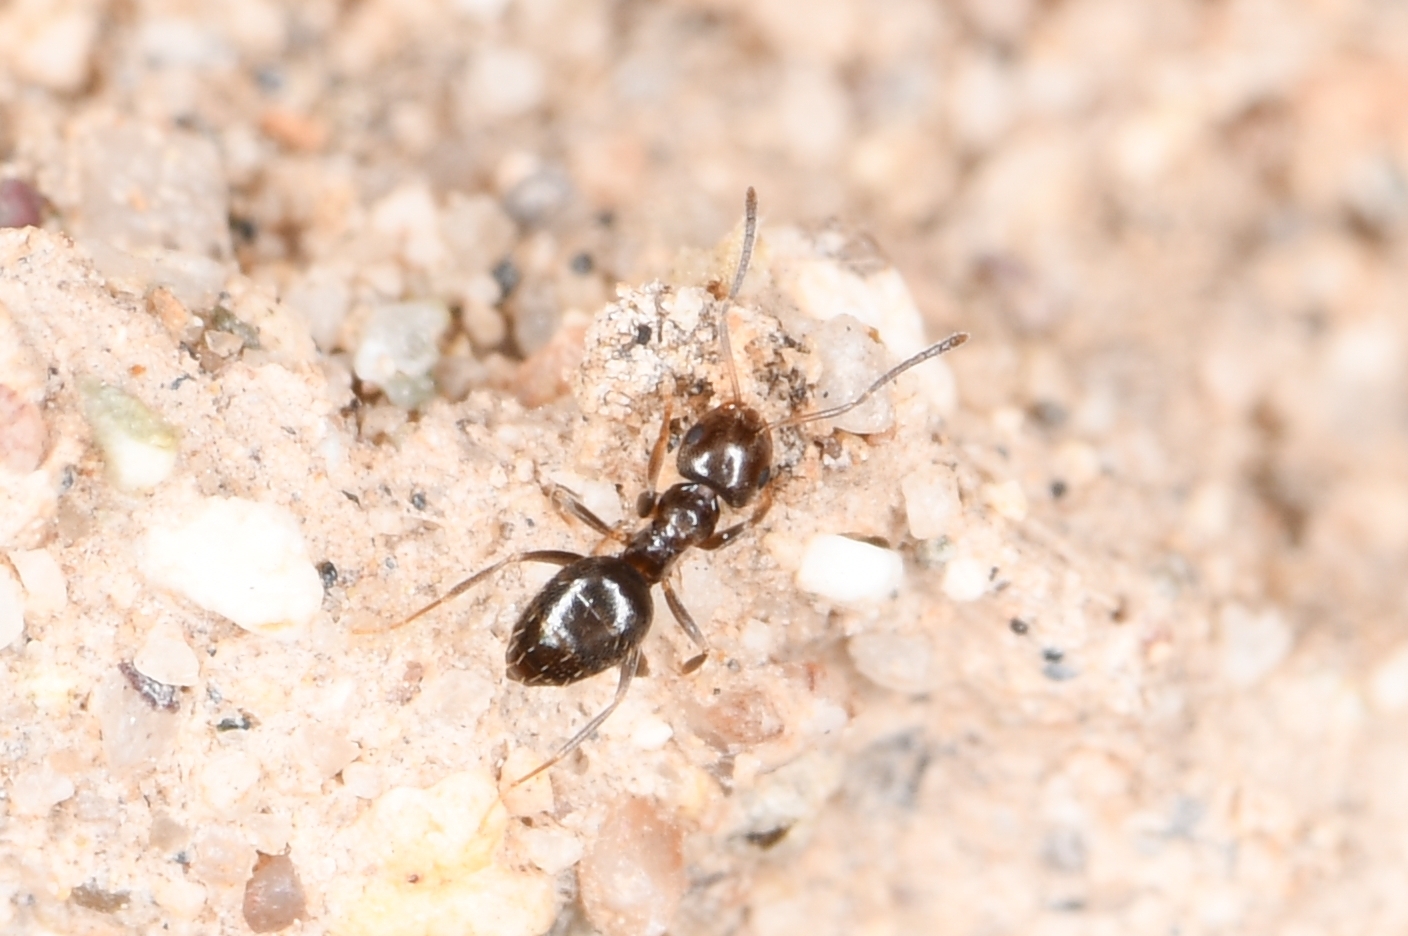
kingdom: Animalia
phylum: Arthropoda
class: Insecta
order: Hymenoptera
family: Formicidae
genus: Brachymyrmex
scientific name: Brachymyrmex patagonicus
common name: Dark rover ant
